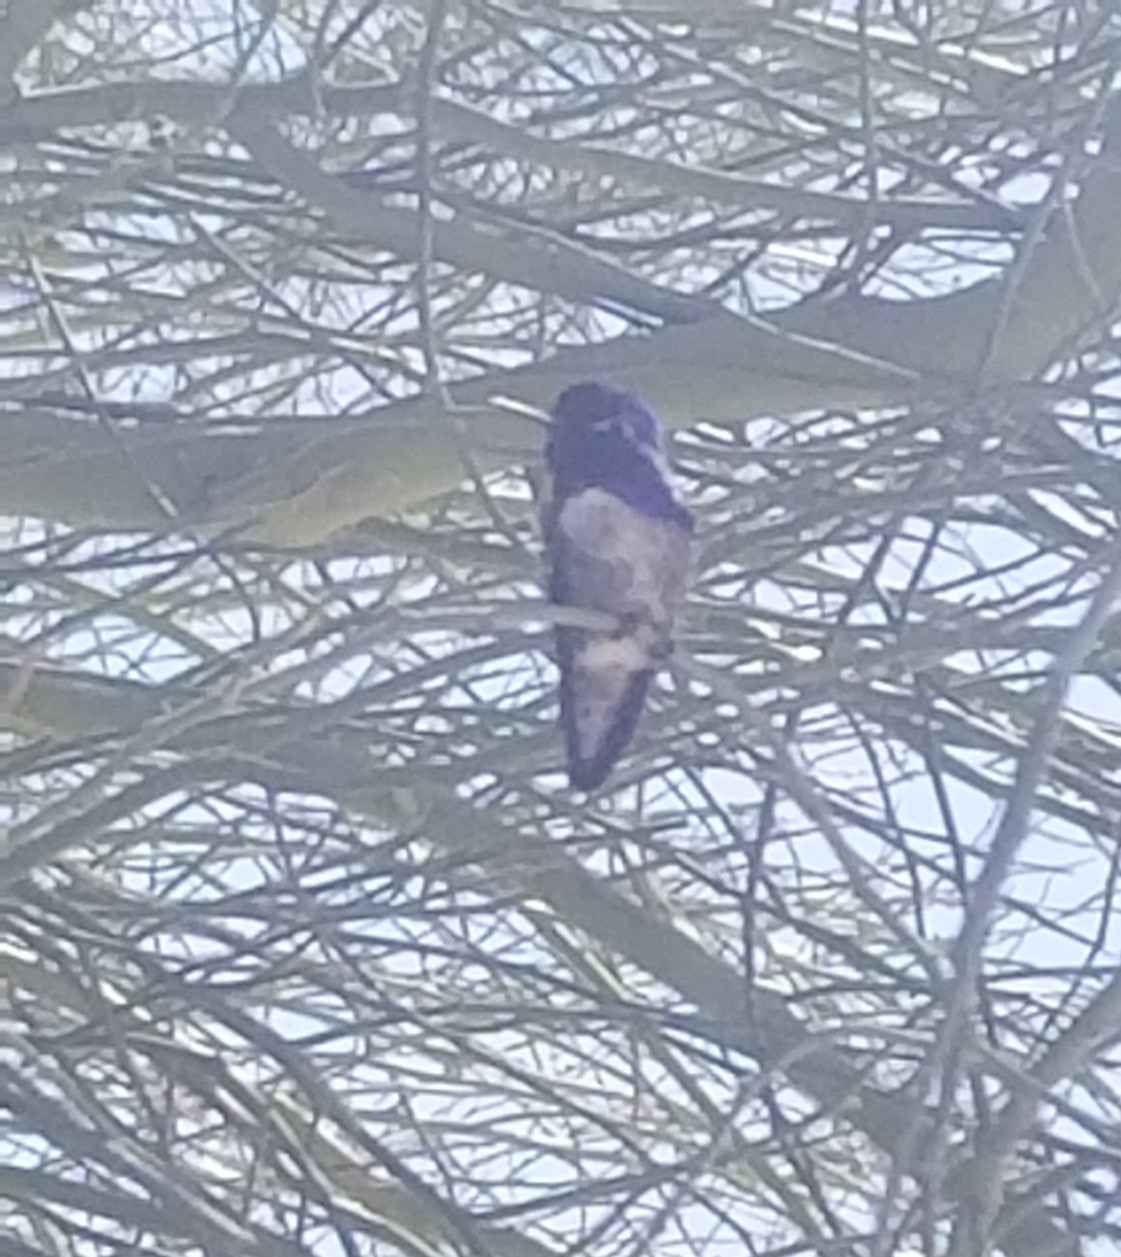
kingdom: Animalia
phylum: Chordata
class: Aves
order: Apodiformes
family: Trochilidae
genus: Calypte
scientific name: Calypte costae
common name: Costa's hummingbird
